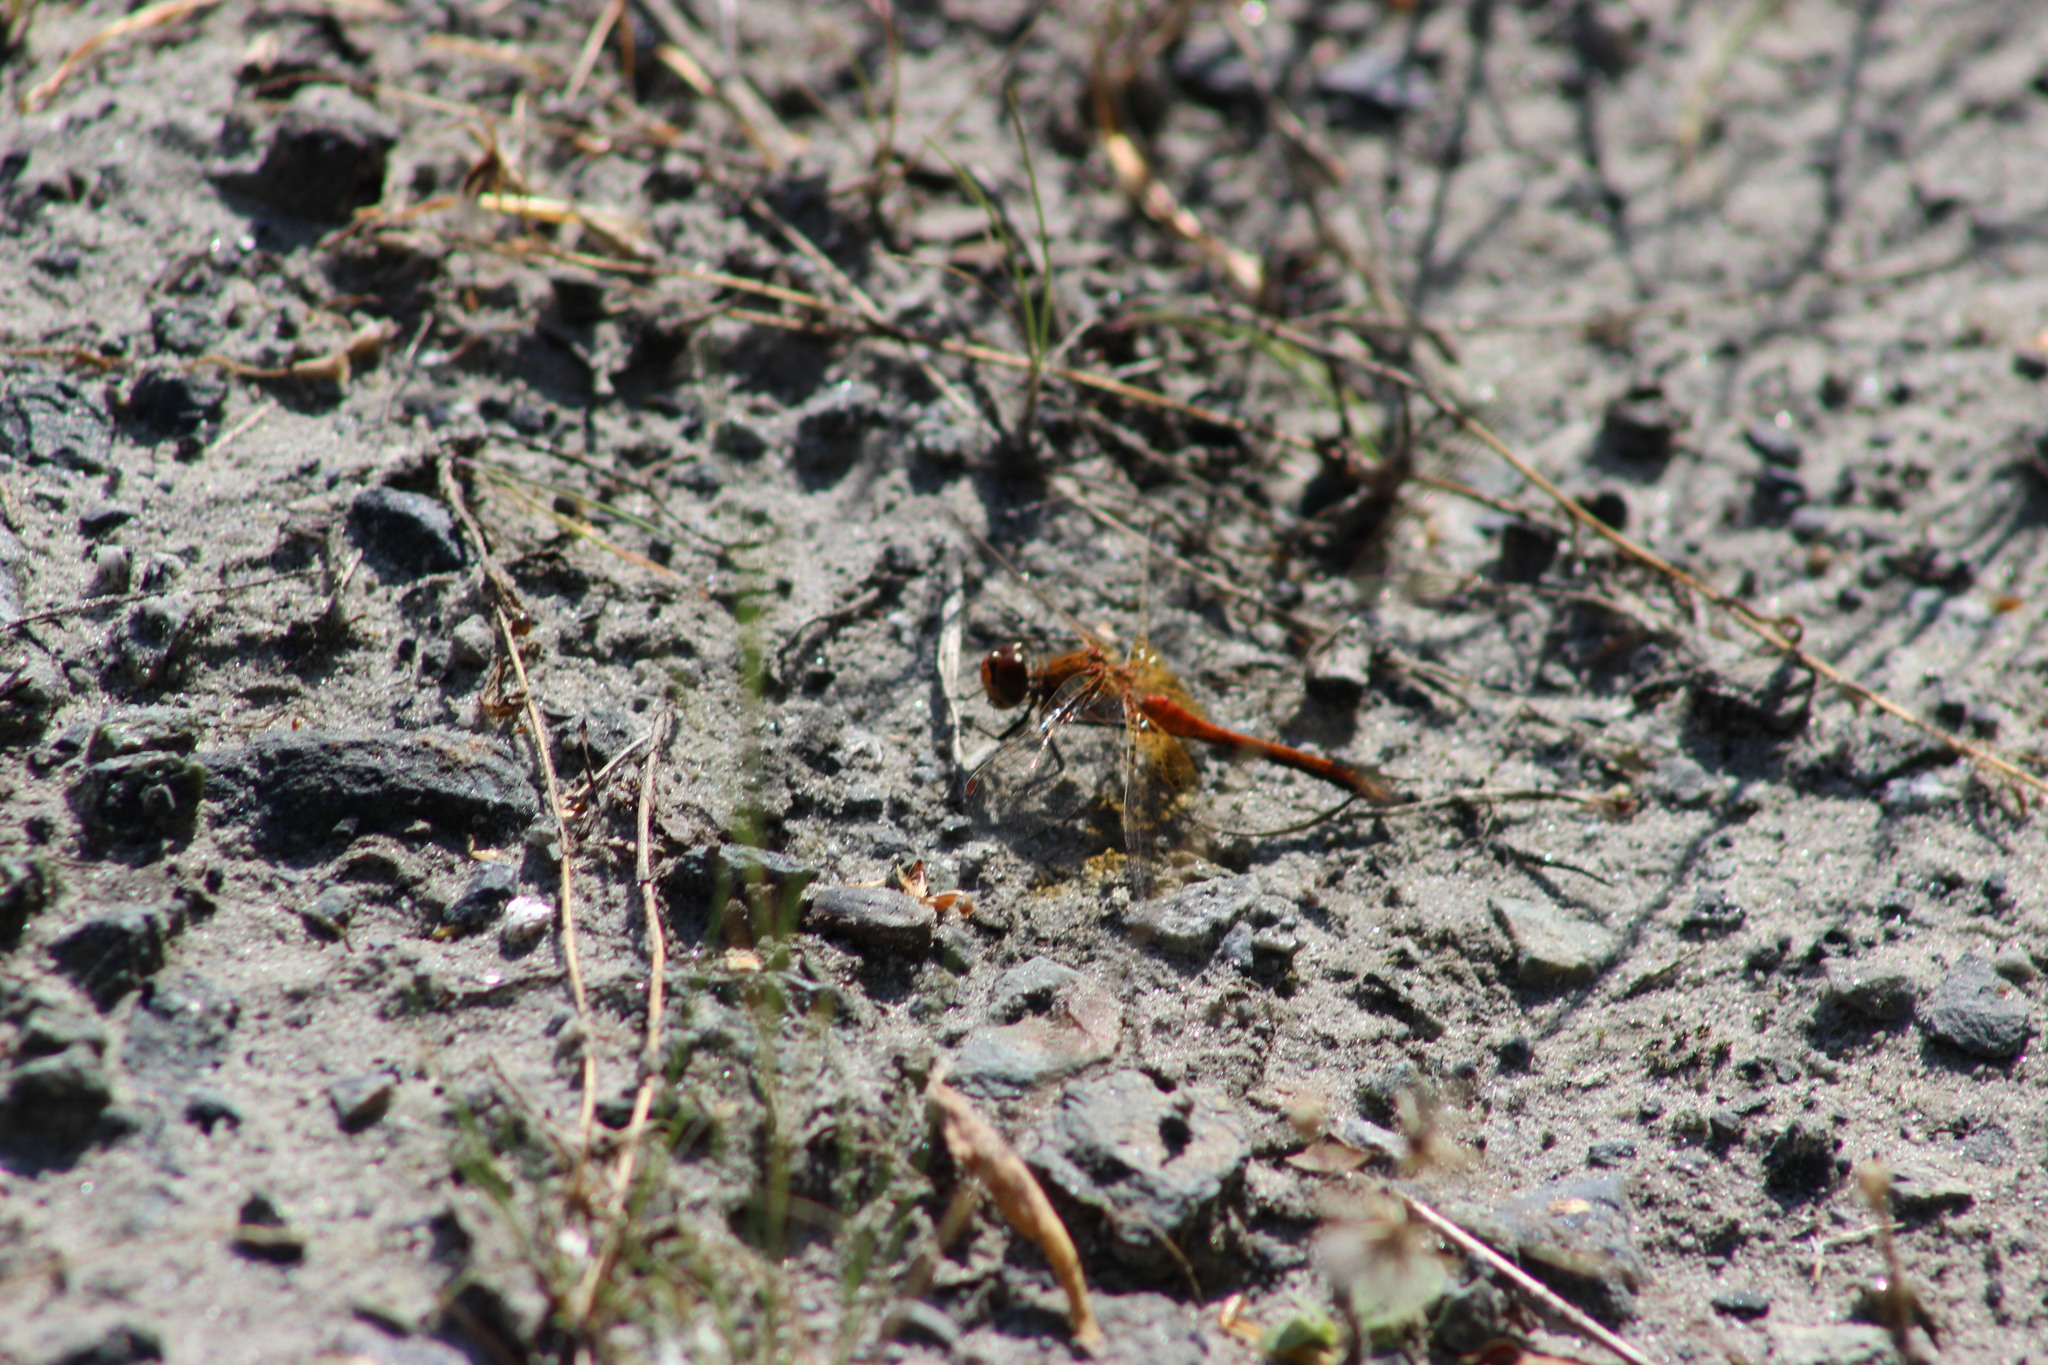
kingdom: Animalia
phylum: Arthropoda
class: Insecta
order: Odonata
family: Libellulidae
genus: Sympetrum
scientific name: Sympetrum flaveolum
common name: Yellow-winged darter
